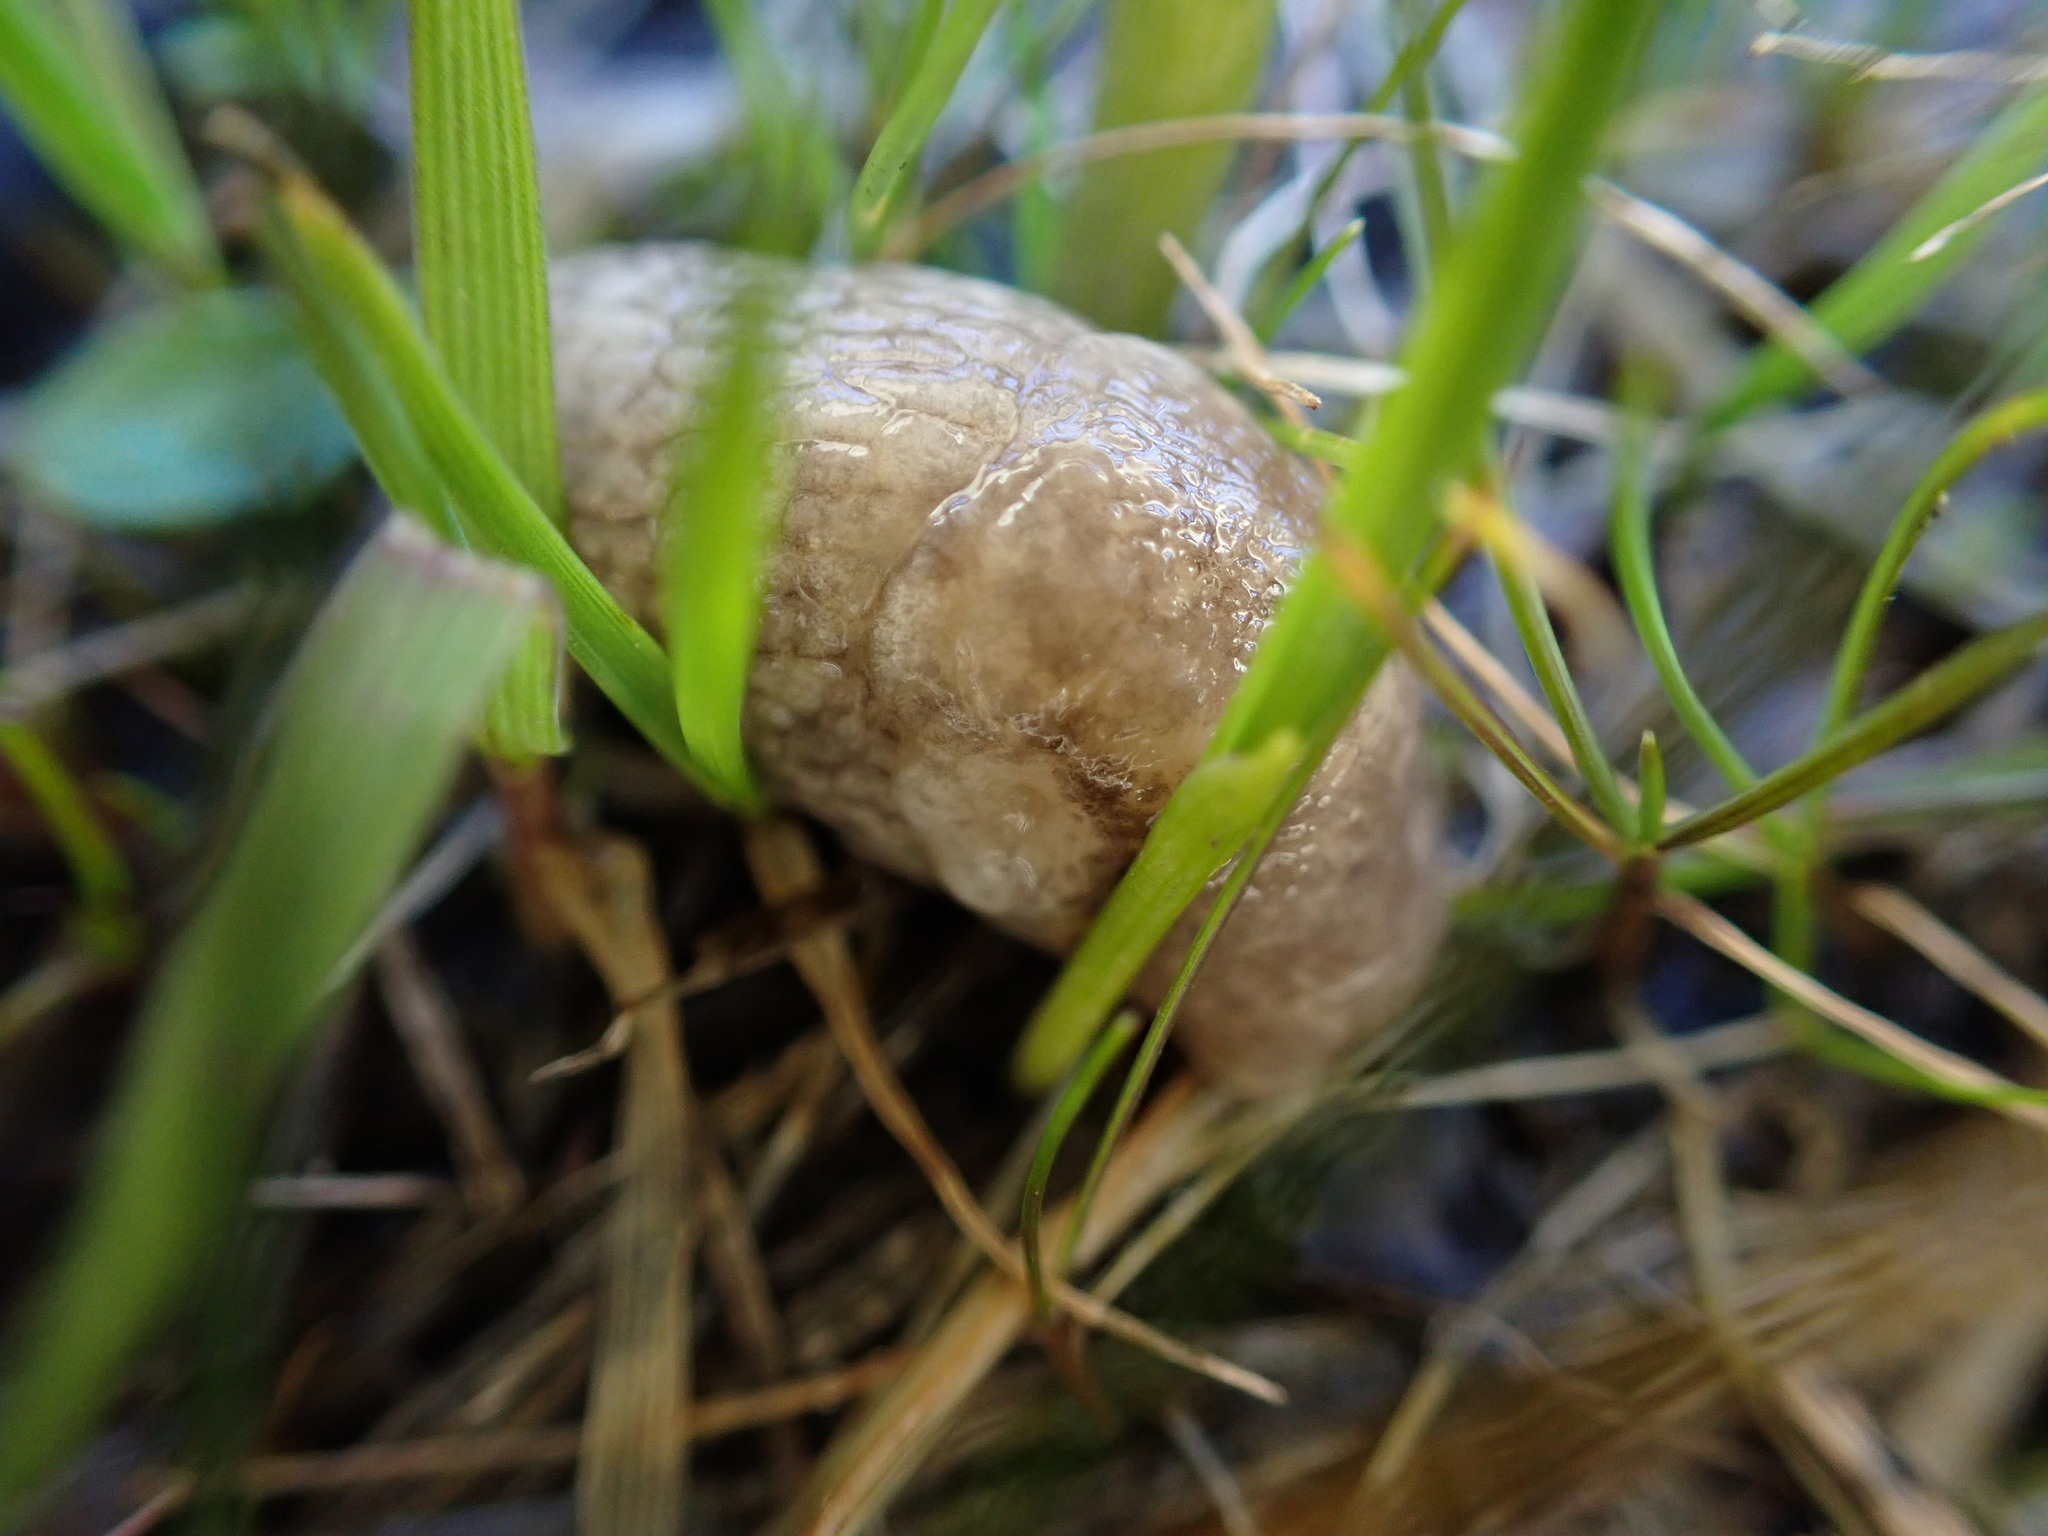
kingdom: Animalia
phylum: Mollusca
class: Gastropoda
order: Stylommatophora
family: Agriolimacidae
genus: Deroceras
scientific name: Deroceras reticulatum
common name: Gray field slug
